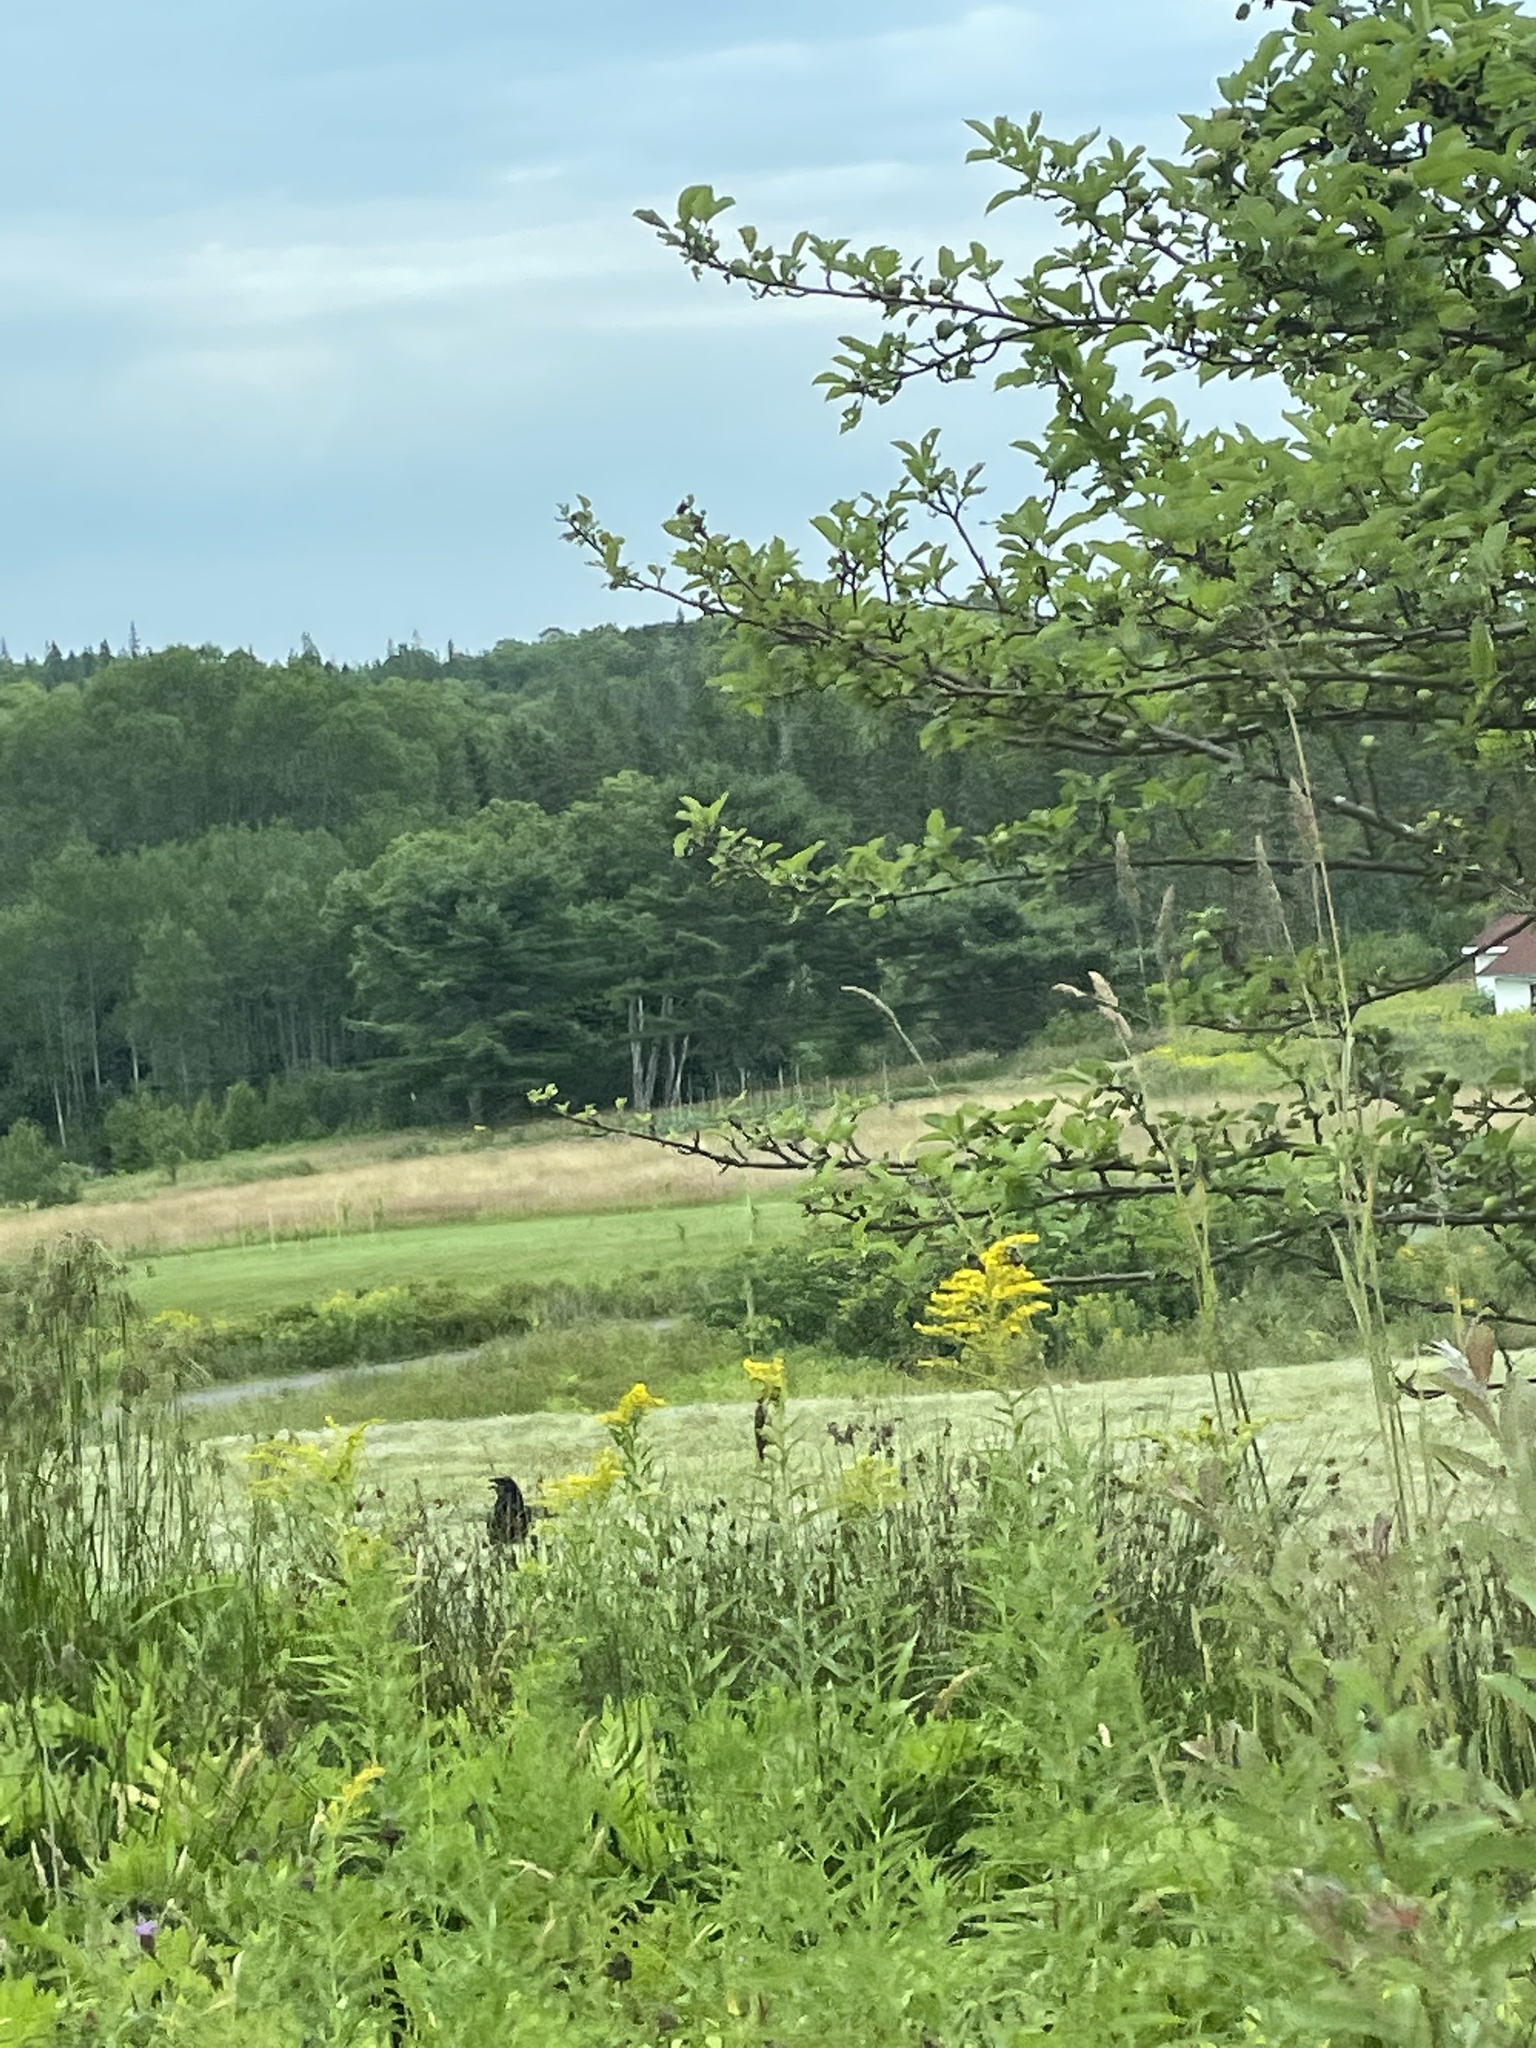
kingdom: Animalia
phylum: Chordata
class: Aves
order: Passeriformes
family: Corvidae
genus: Corvus
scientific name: Corvus brachyrhynchos
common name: American crow
